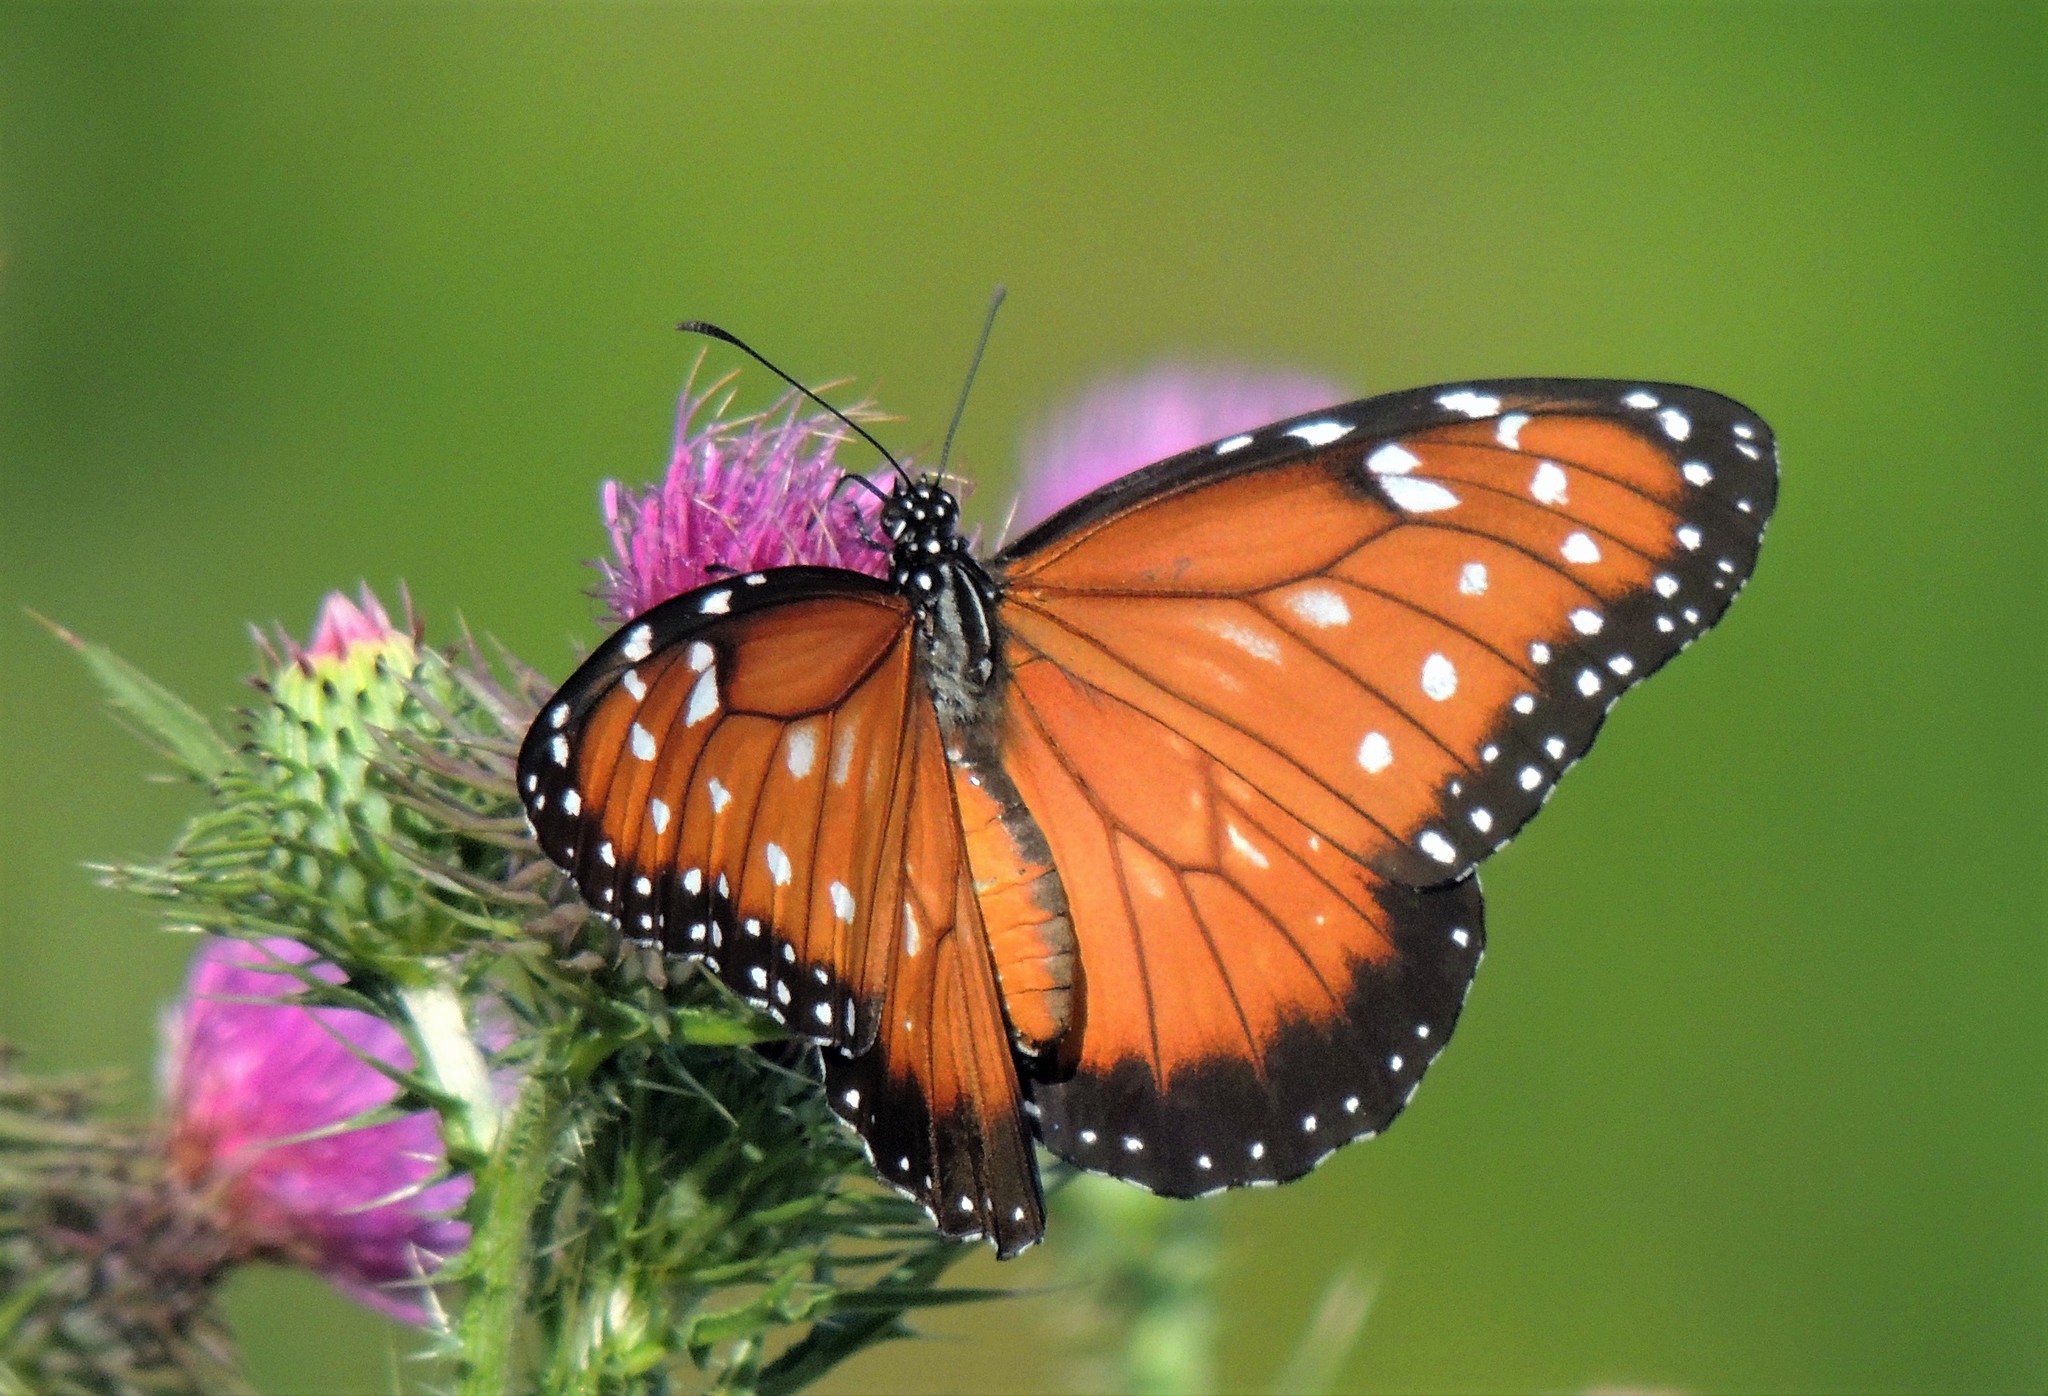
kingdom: Animalia
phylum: Arthropoda
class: Insecta
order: Lepidoptera
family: Nymphalidae
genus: Danaus
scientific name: Danaus eresimus
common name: Soldier
